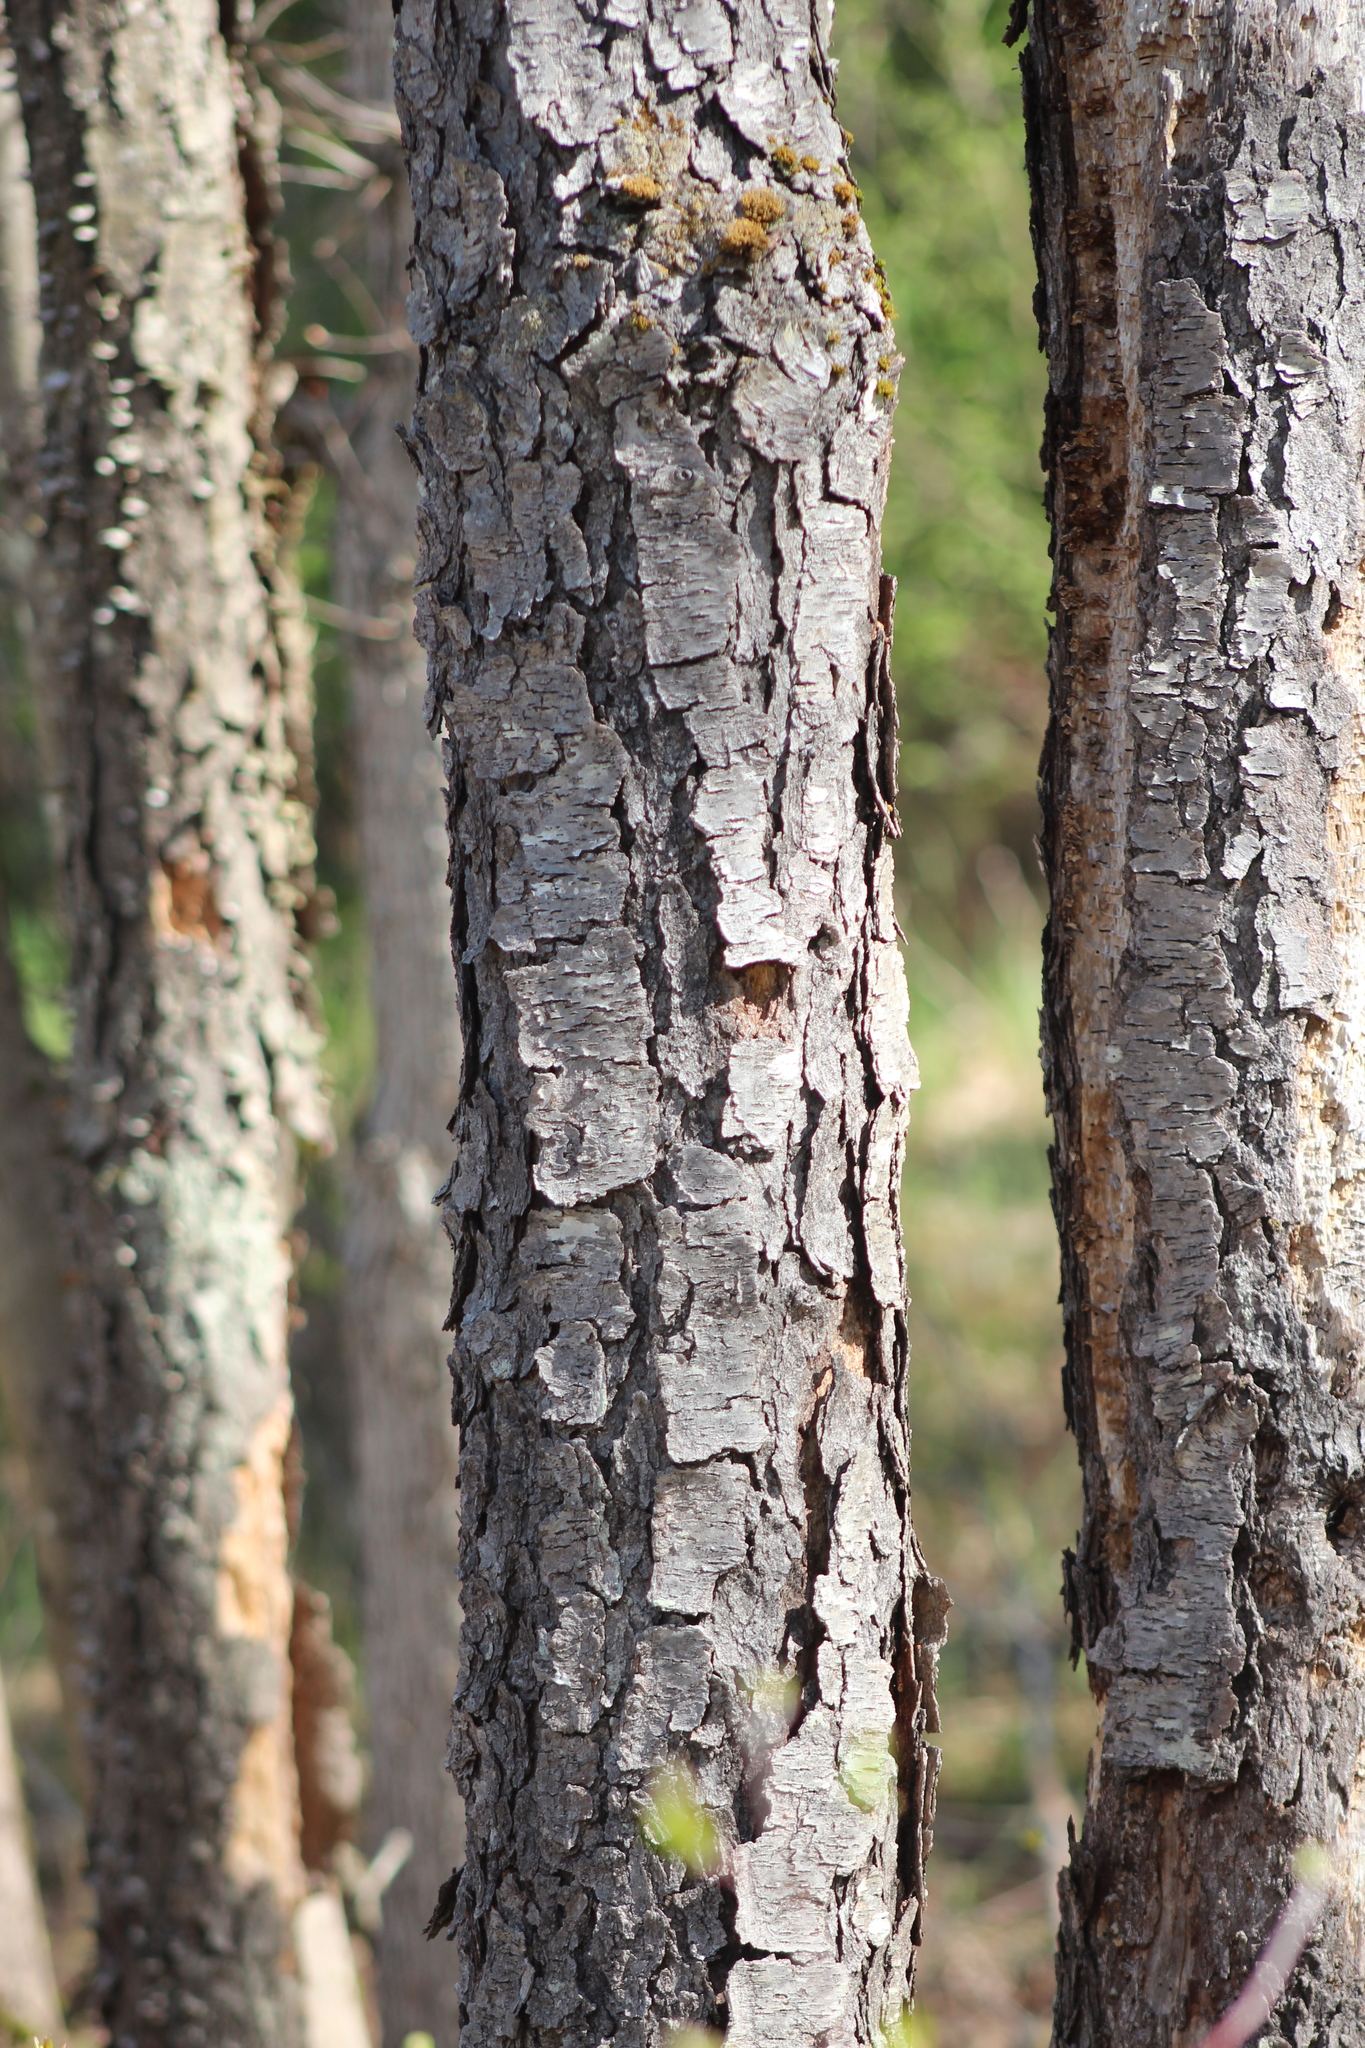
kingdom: Plantae
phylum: Tracheophyta
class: Magnoliopsida
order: Rosales
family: Rosaceae
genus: Prunus
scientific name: Prunus serotina
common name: Black cherry
